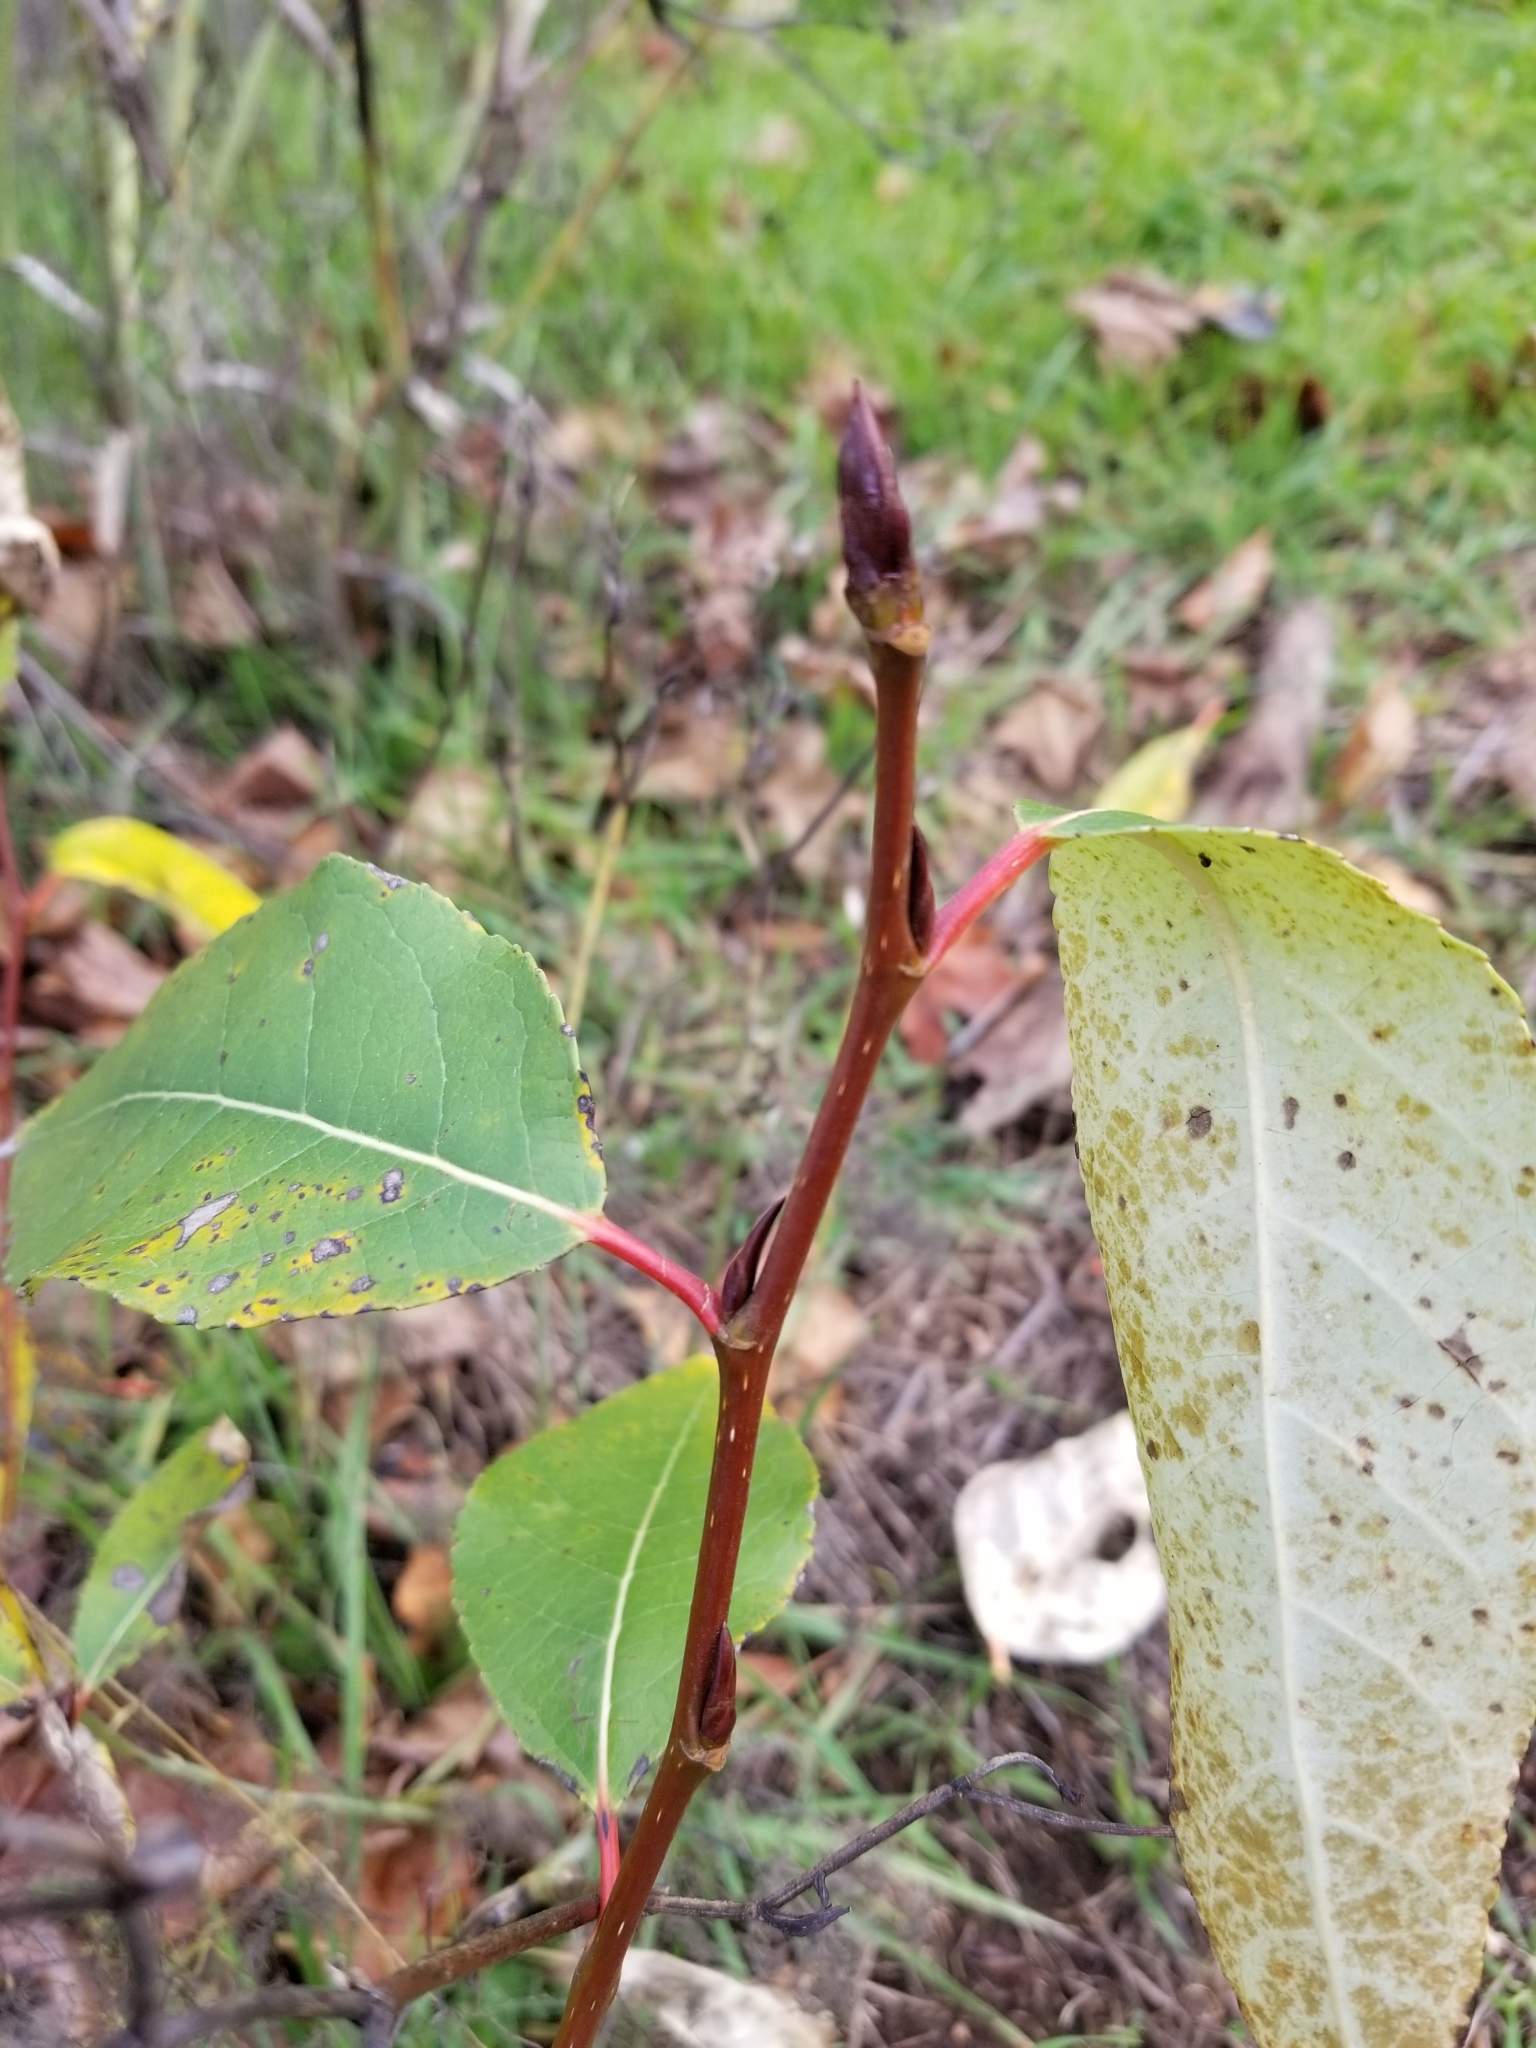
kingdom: Plantae
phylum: Tracheophyta
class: Magnoliopsida
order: Malpighiales
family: Salicaceae
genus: Populus
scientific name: Populus trichocarpa
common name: Black cottonwood
